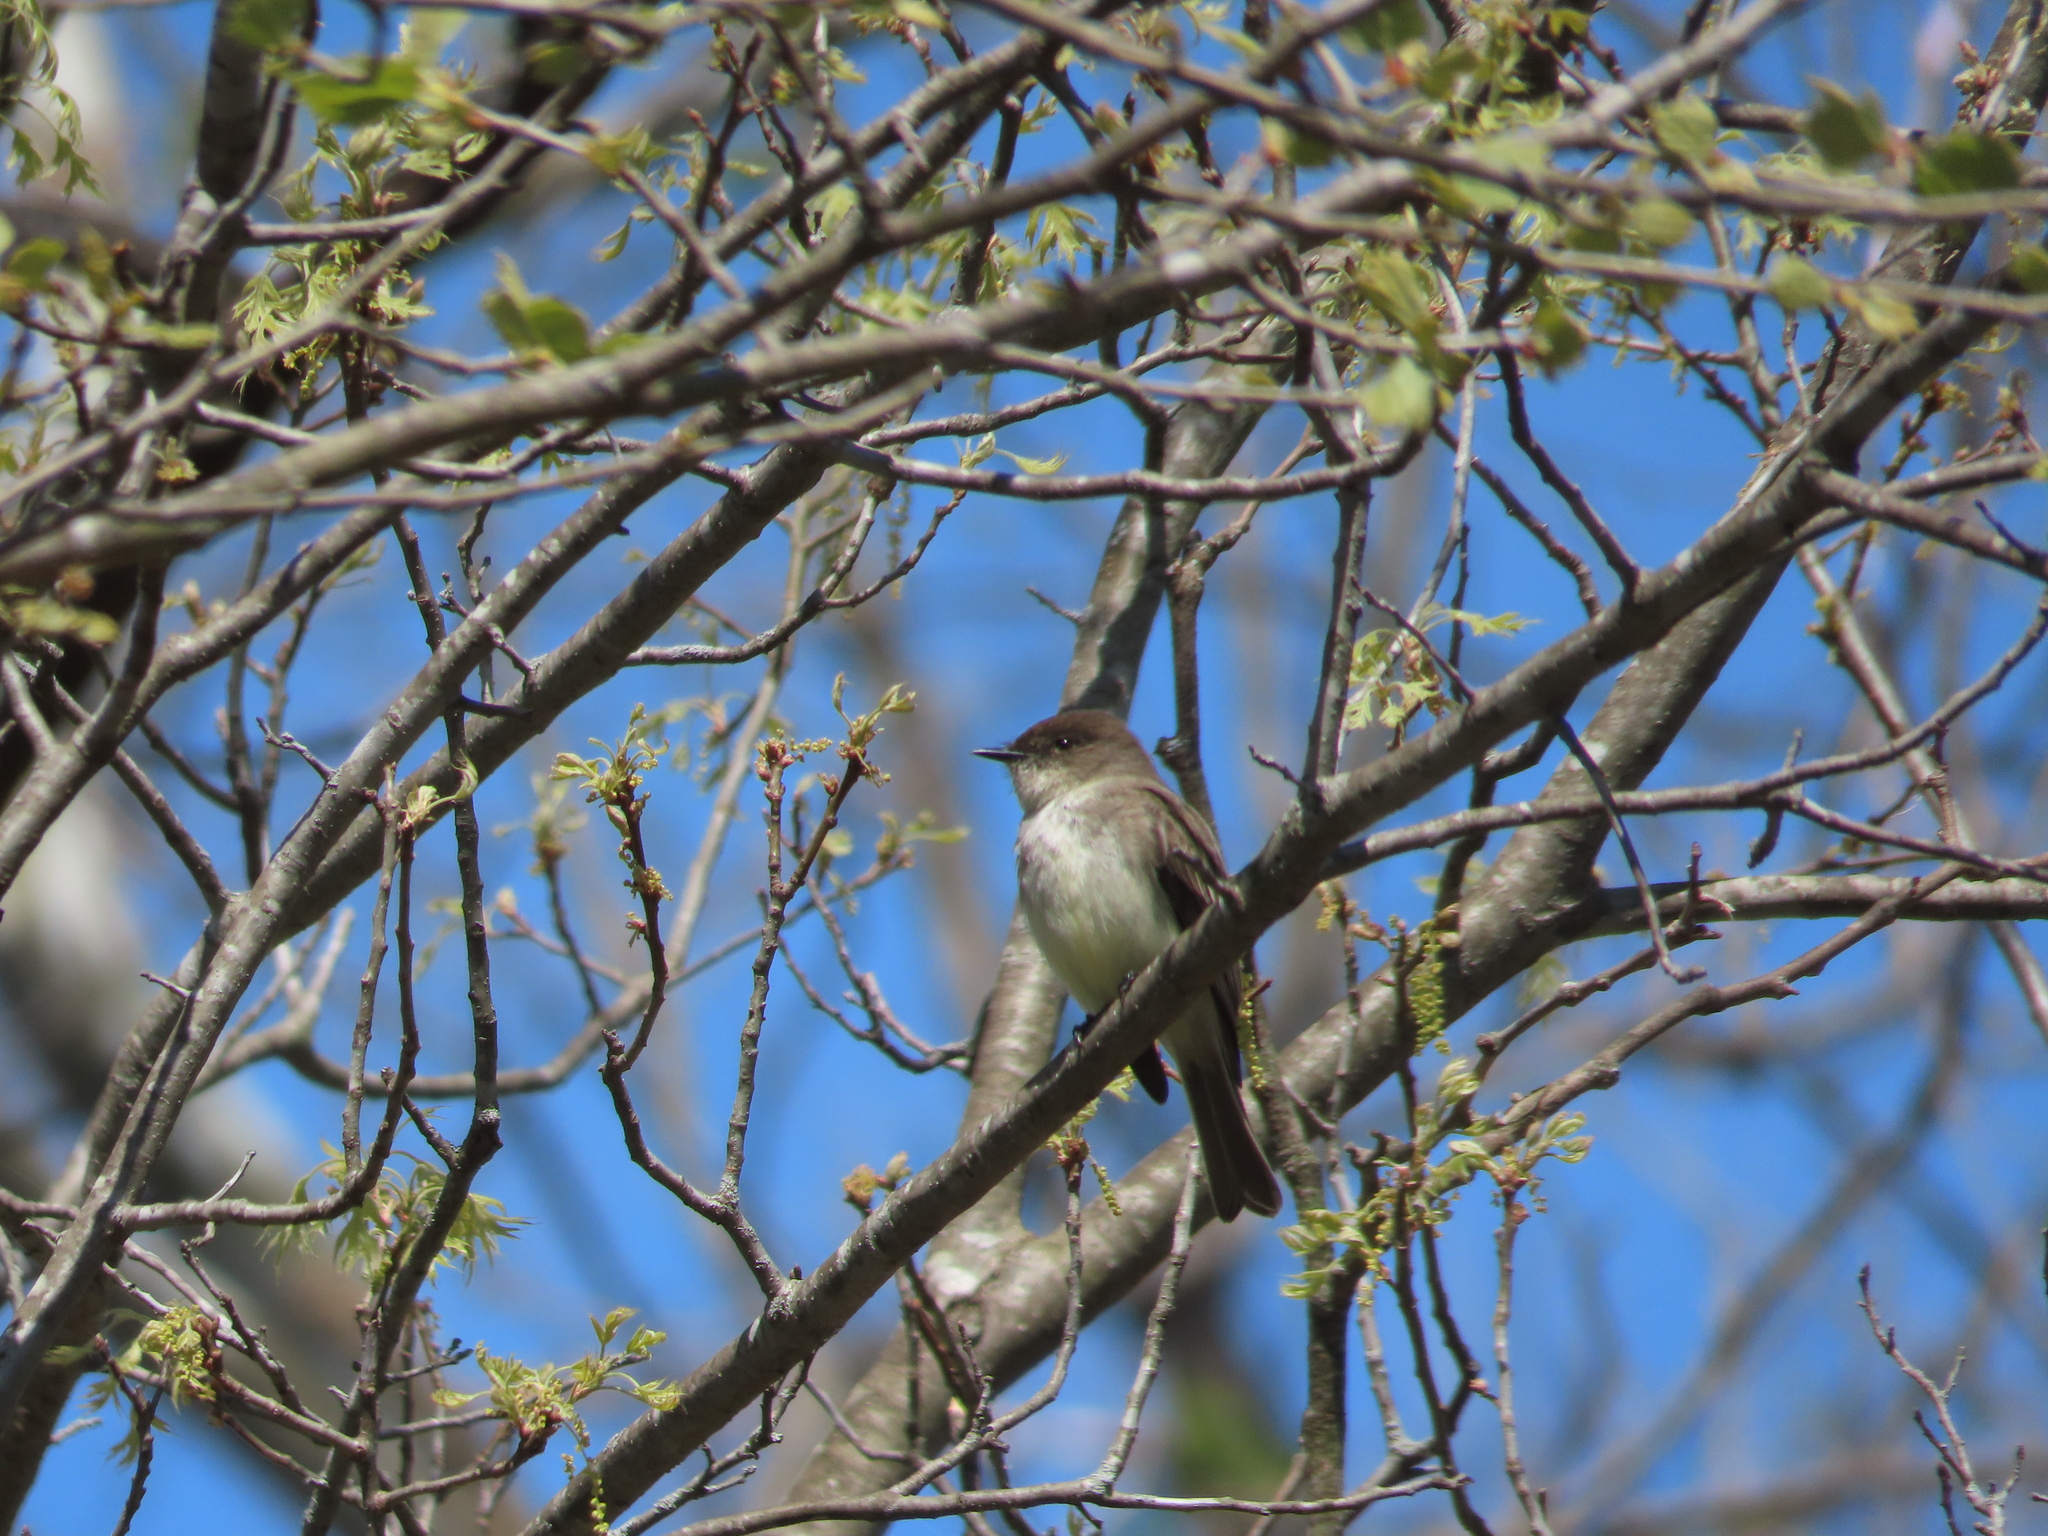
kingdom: Animalia
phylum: Chordata
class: Aves
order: Passeriformes
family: Tyrannidae
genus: Sayornis
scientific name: Sayornis phoebe
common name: Eastern phoebe
